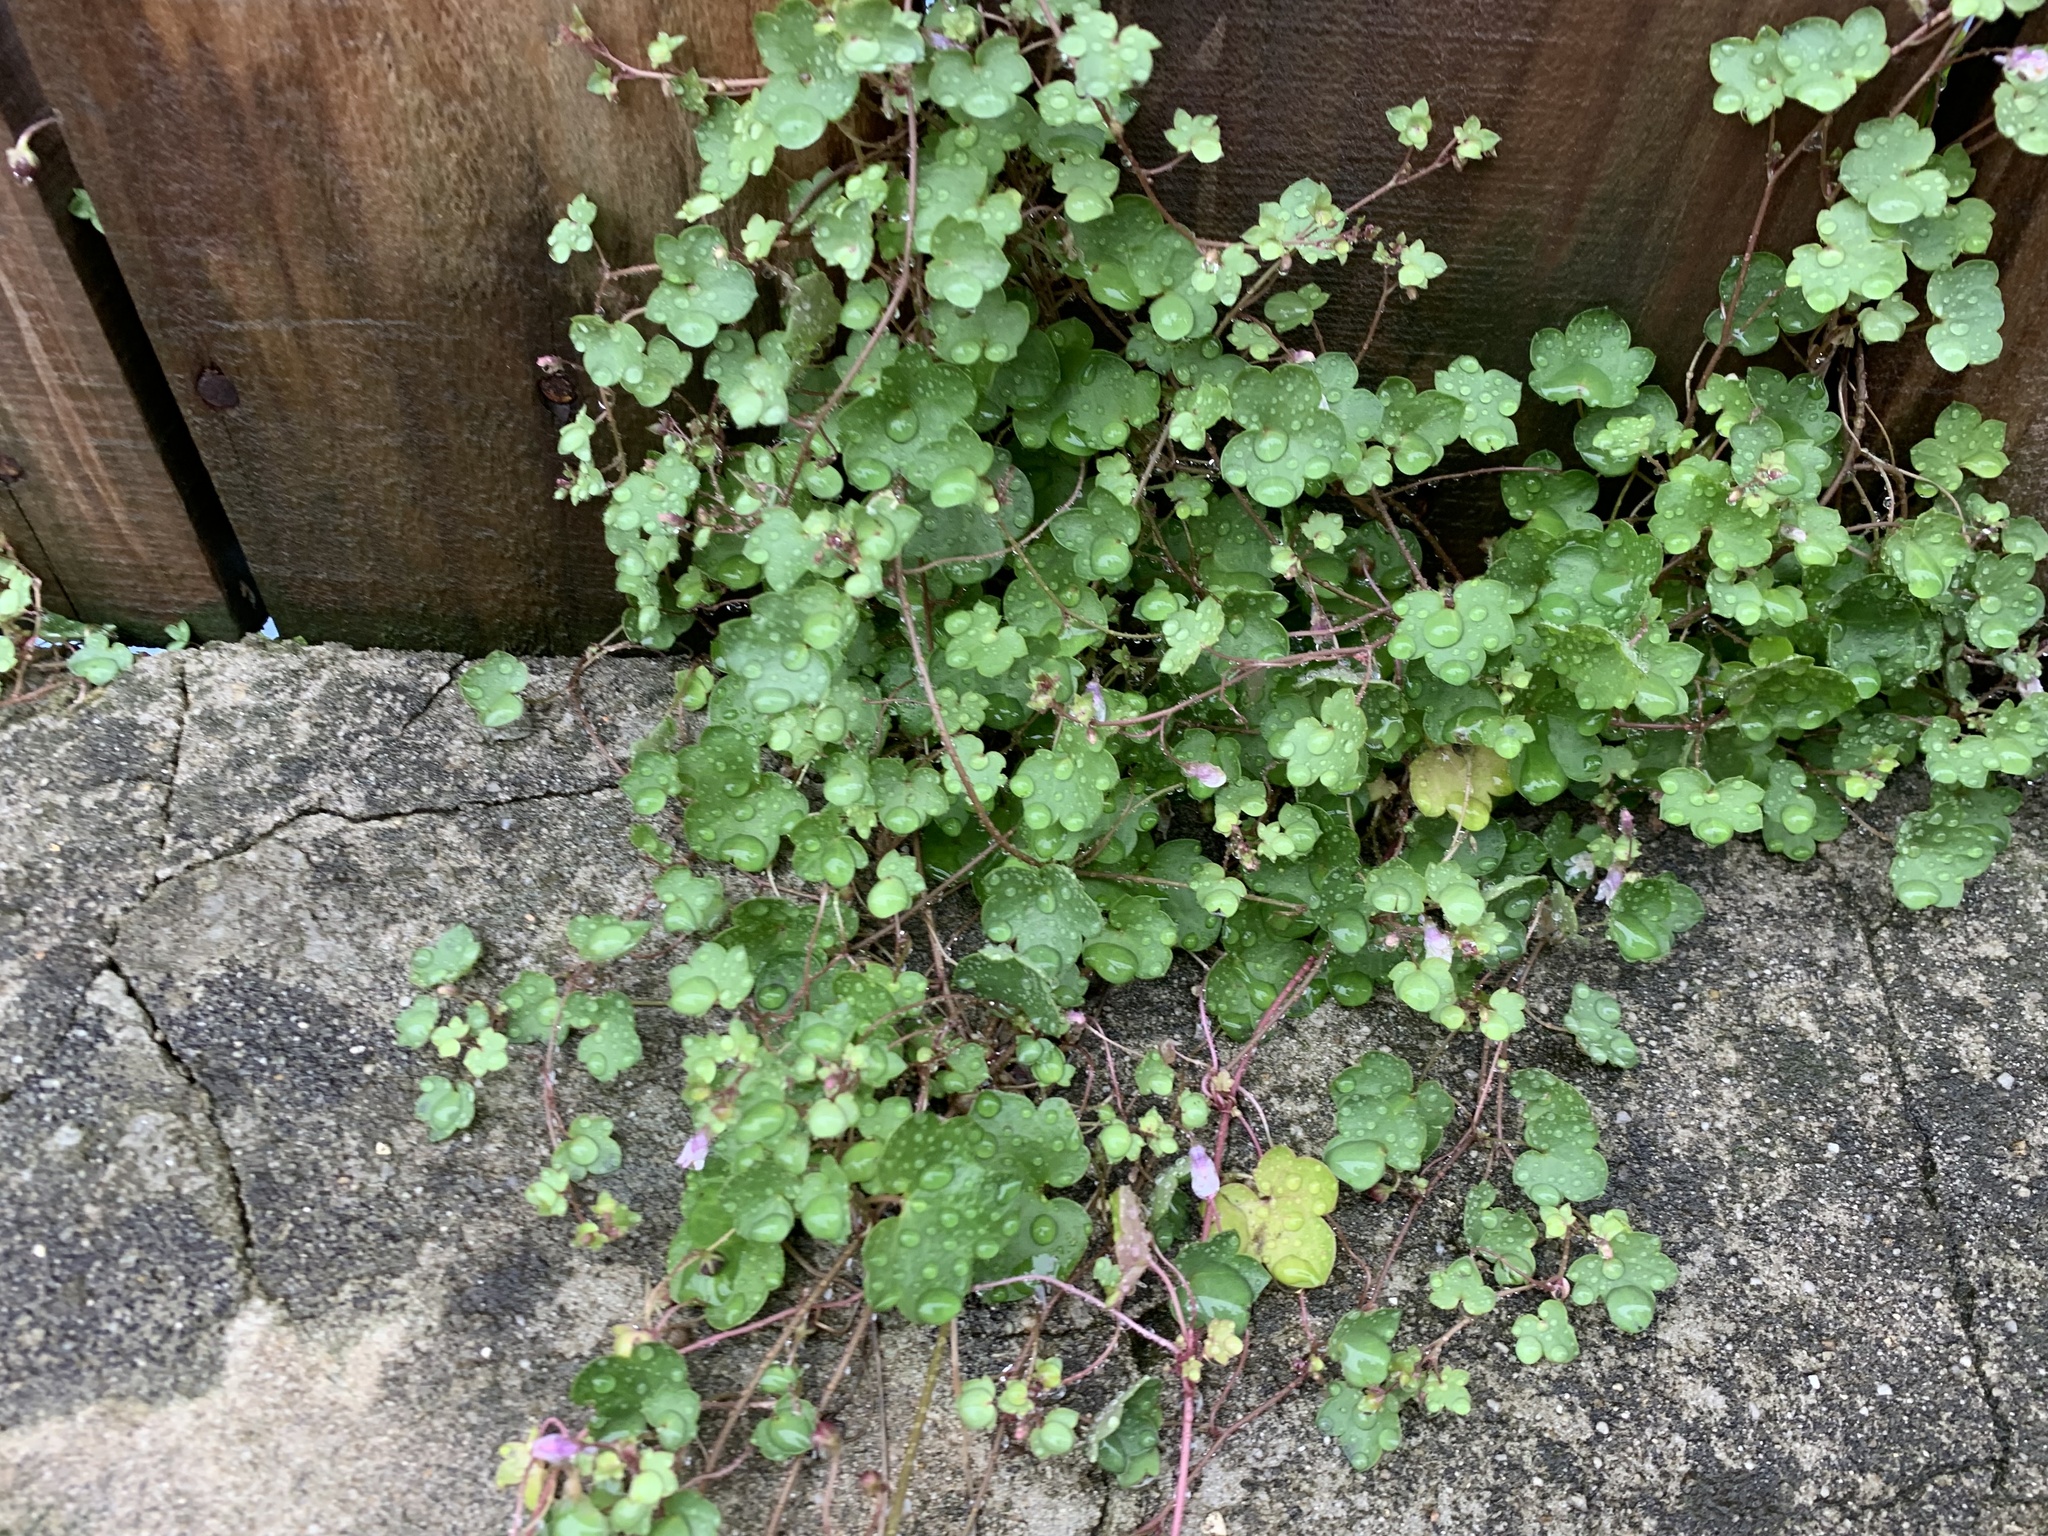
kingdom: Plantae
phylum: Tracheophyta
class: Magnoliopsida
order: Lamiales
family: Plantaginaceae
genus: Cymbalaria
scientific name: Cymbalaria muralis
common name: Ivy-leaved toadflax
